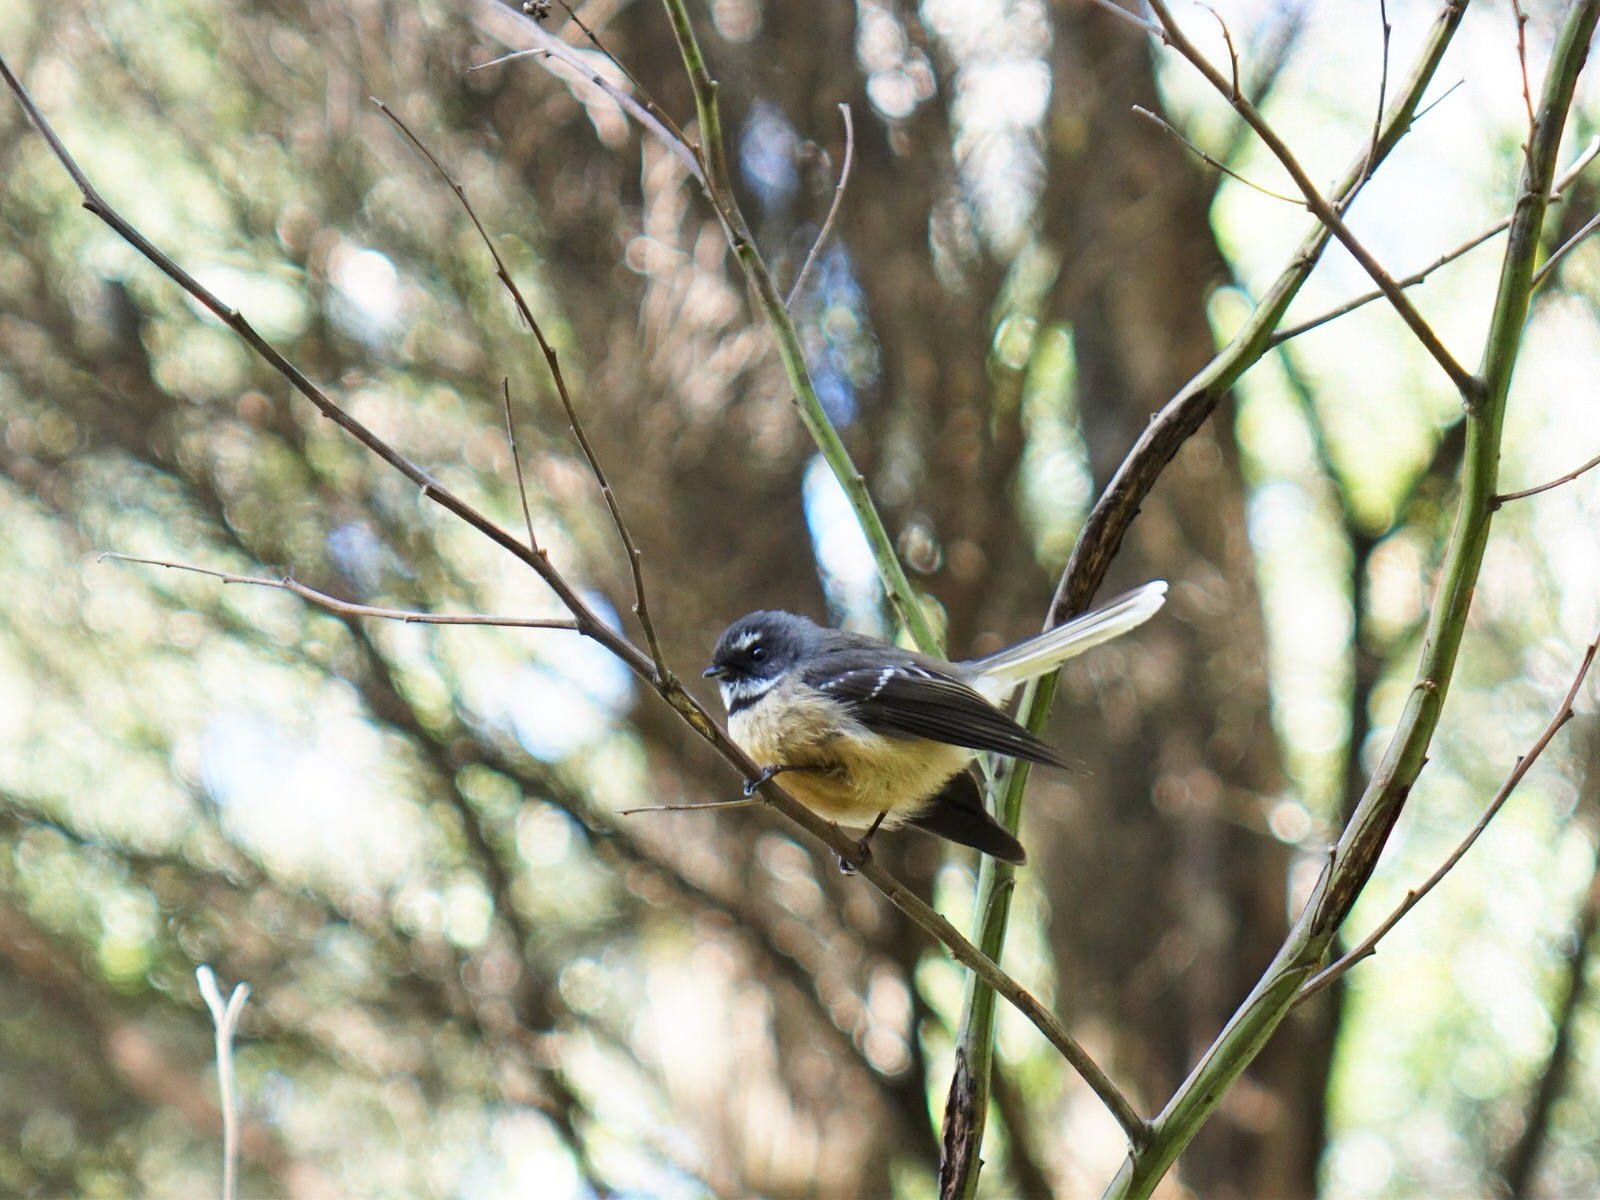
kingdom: Animalia
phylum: Chordata
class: Aves
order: Passeriformes
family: Rhipiduridae
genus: Rhipidura
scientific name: Rhipidura fuliginosa
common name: New zealand fantail
